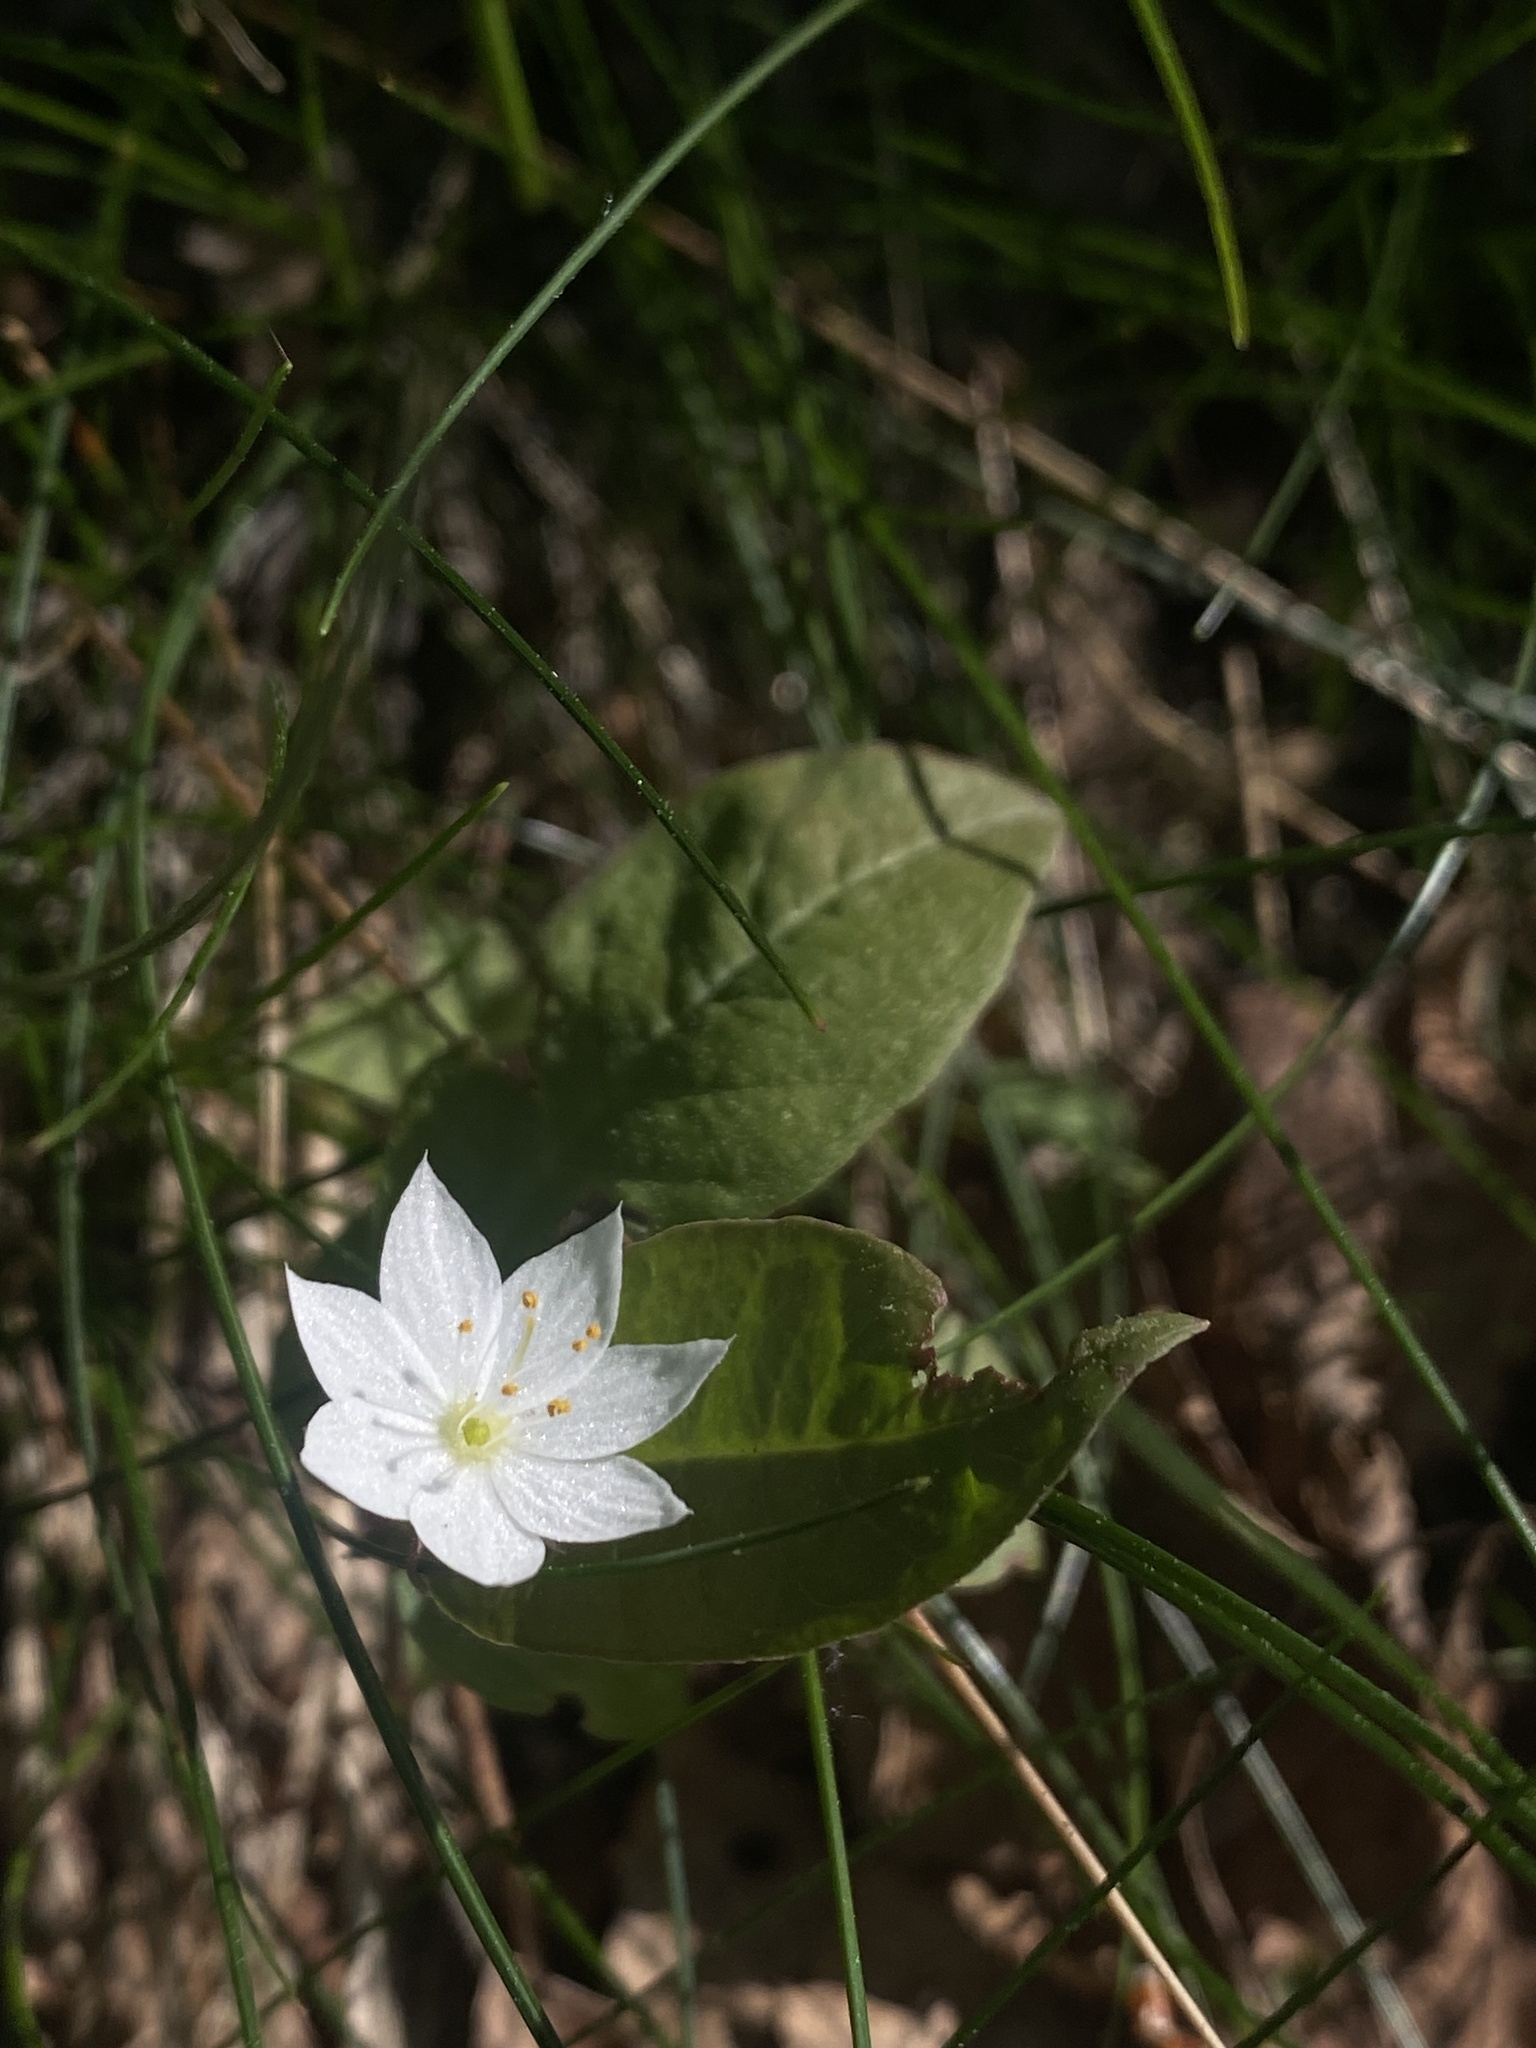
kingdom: Plantae
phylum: Tracheophyta
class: Magnoliopsida
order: Ericales
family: Primulaceae
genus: Lysimachia
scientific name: Lysimachia europaea
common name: Arctic starflower
